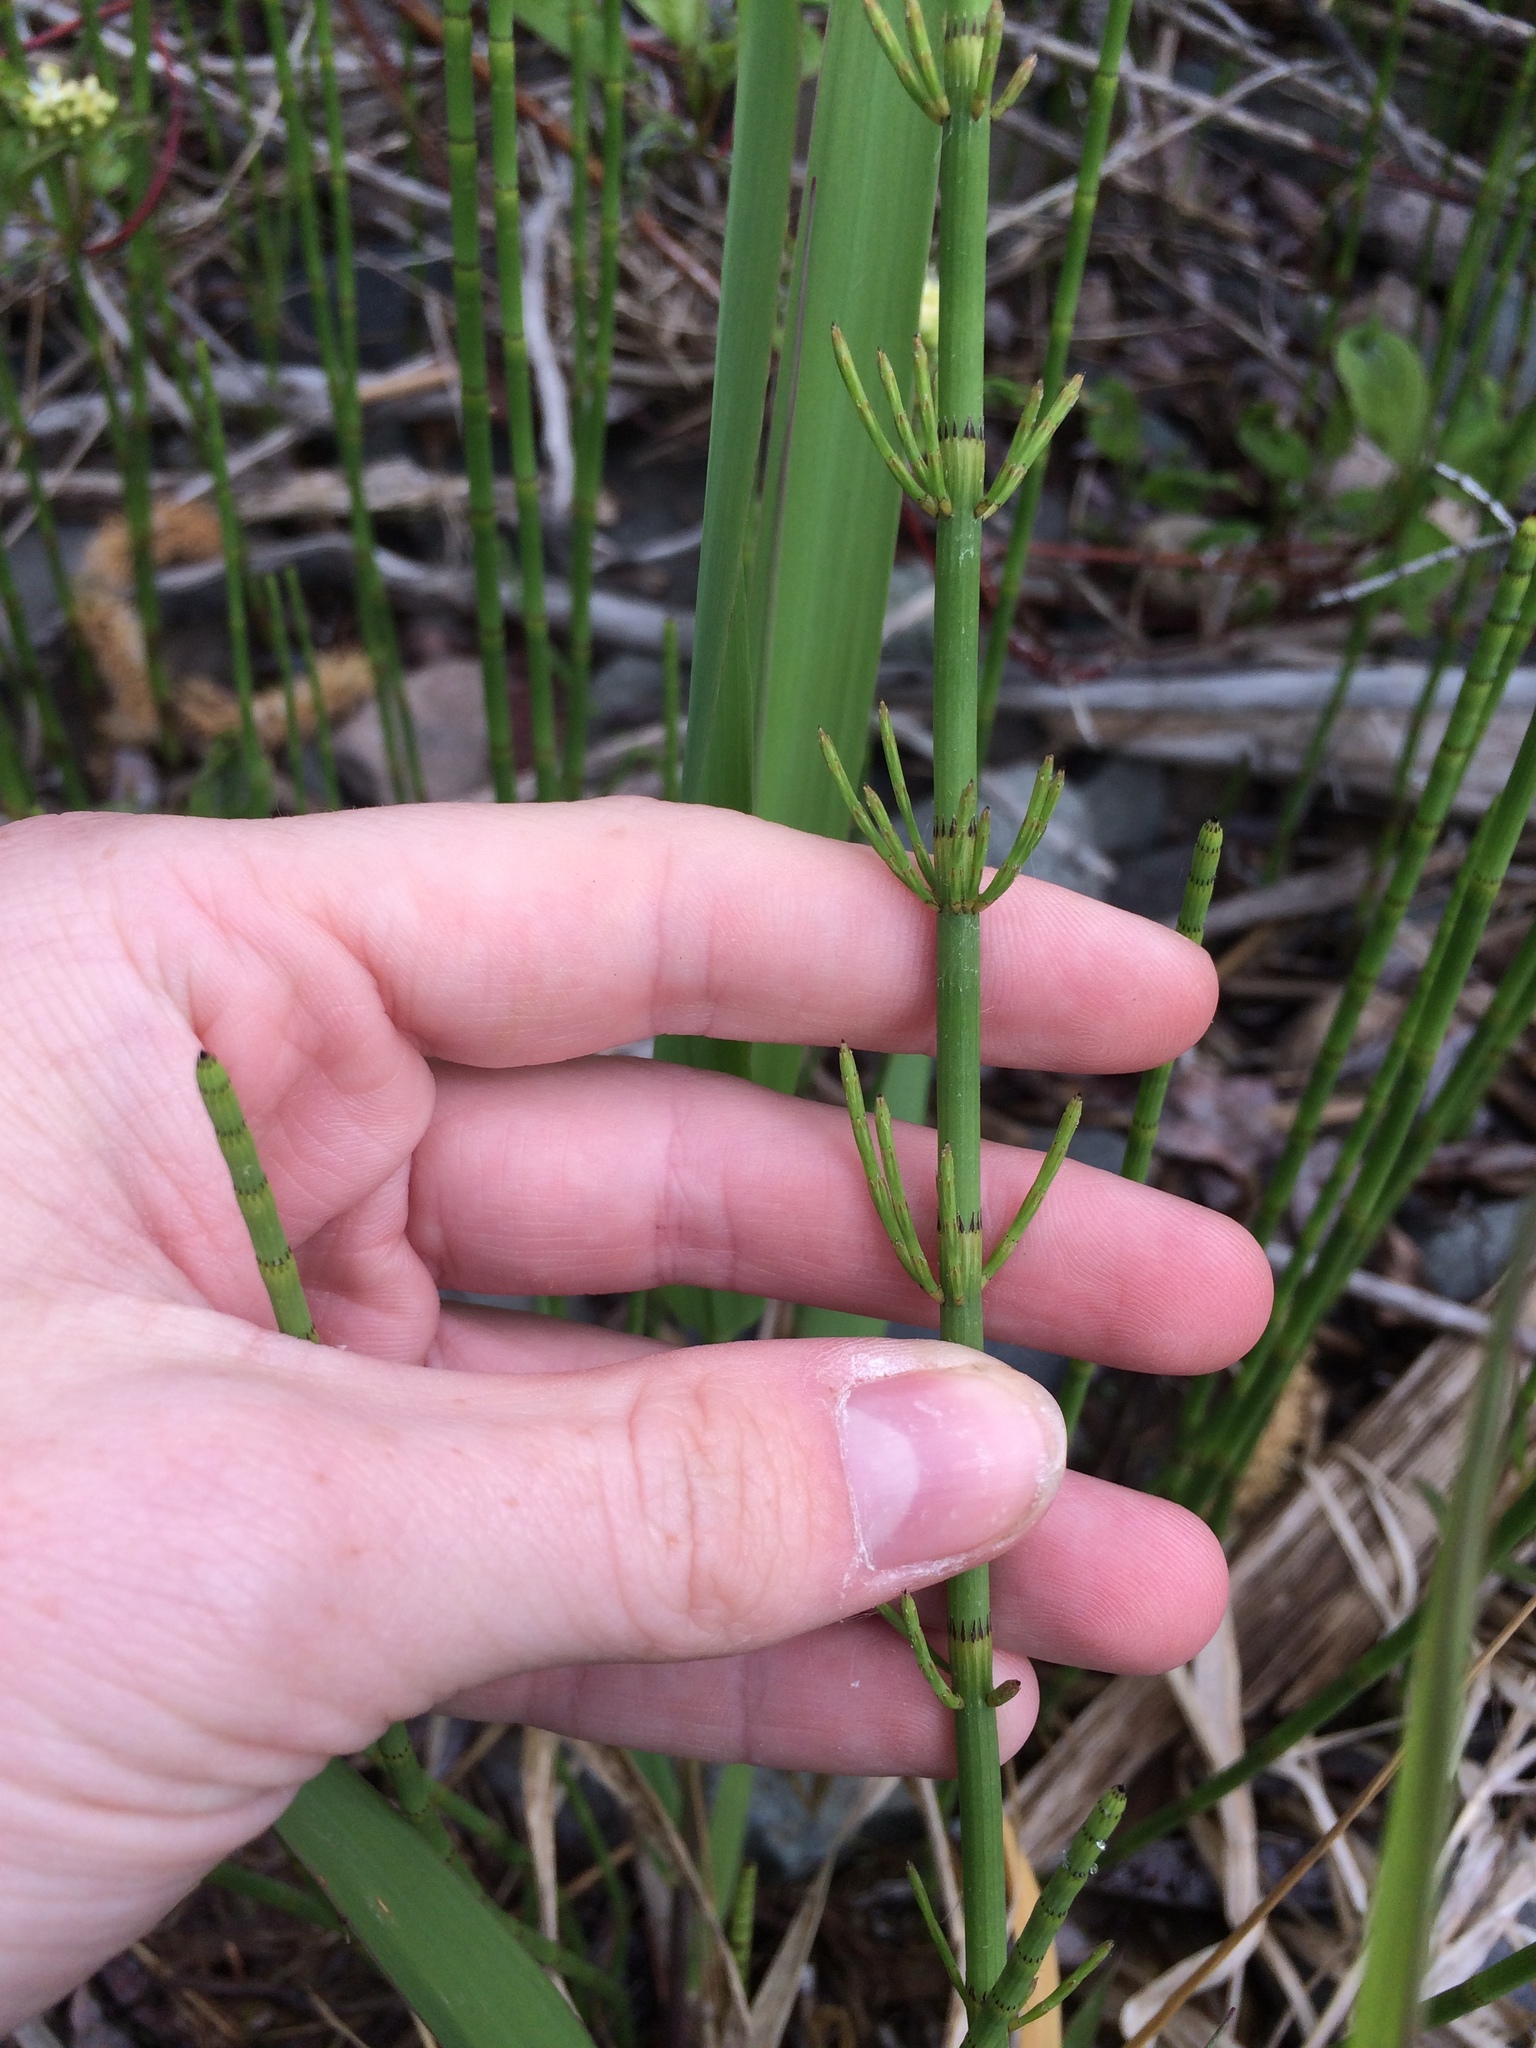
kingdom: Plantae
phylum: Tracheophyta
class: Polypodiopsida
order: Equisetales
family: Equisetaceae
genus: Equisetum
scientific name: Equisetum fluviatile
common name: Water horsetail
